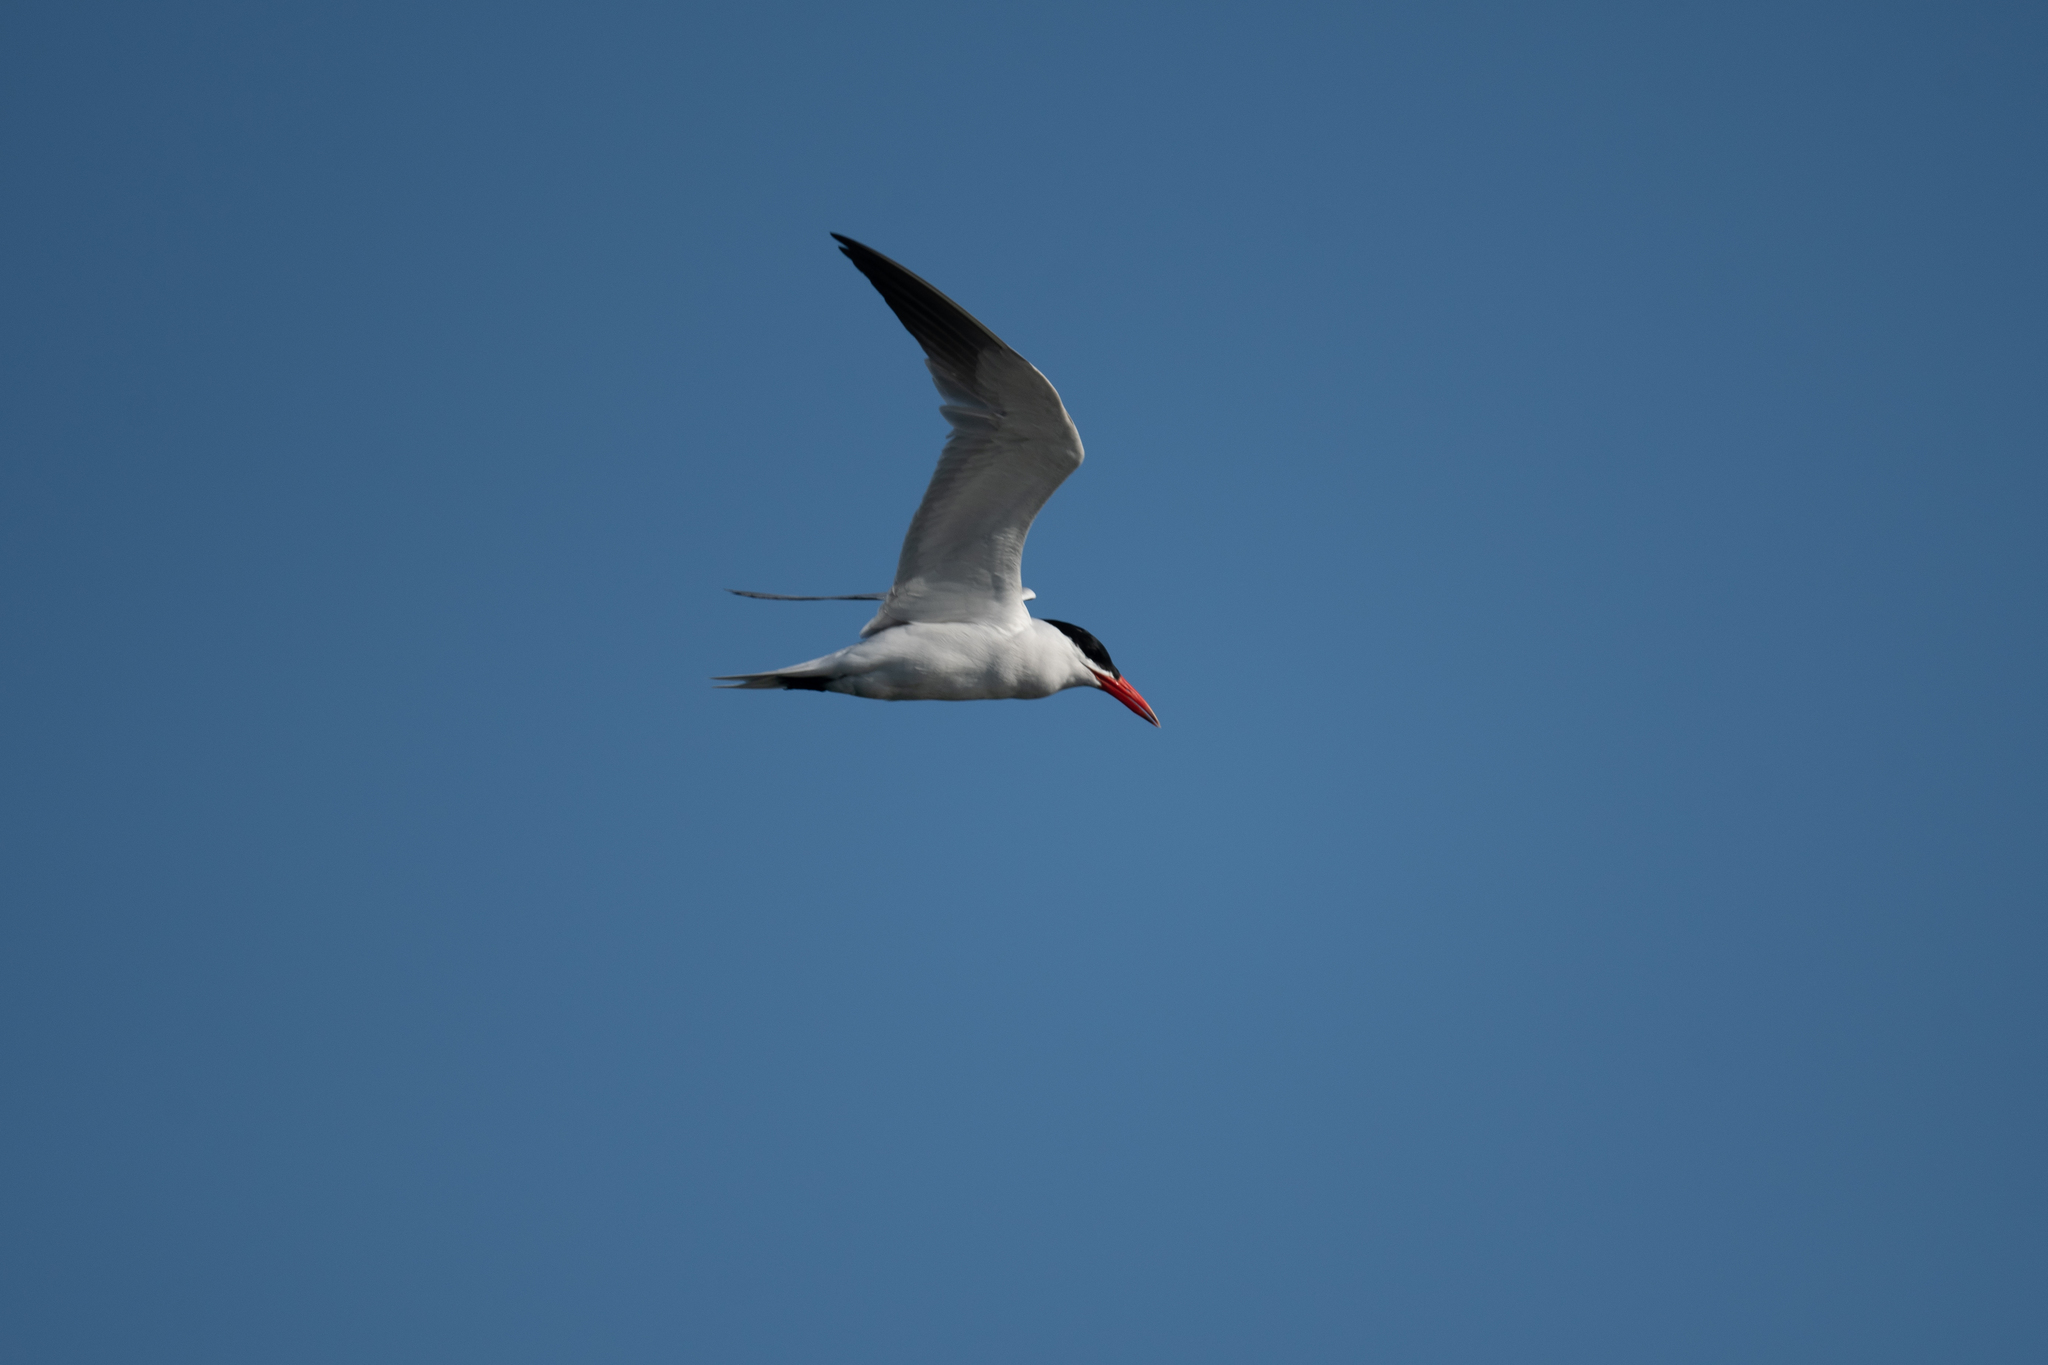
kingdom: Animalia
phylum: Chordata
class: Aves
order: Charadriiformes
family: Laridae
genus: Hydroprogne
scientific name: Hydroprogne caspia
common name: Caspian tern
